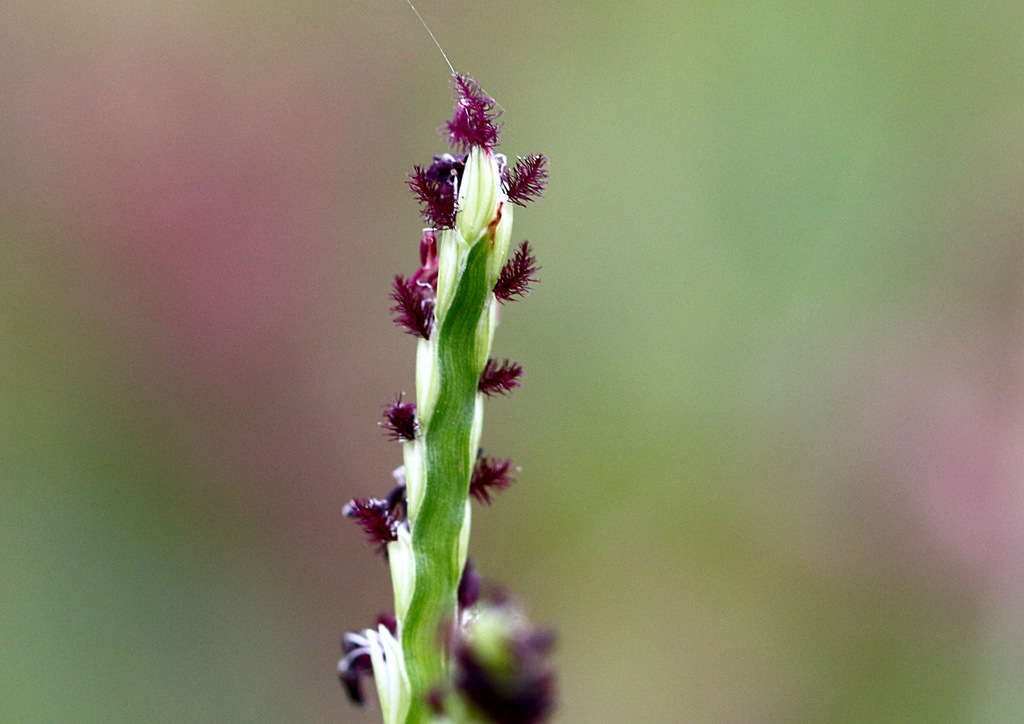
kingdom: Plantae
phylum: Tracheophyta
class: Liliopsida
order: Poales
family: Poaceae
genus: Paspalum
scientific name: Paspalum distichum
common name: Knotgrass
